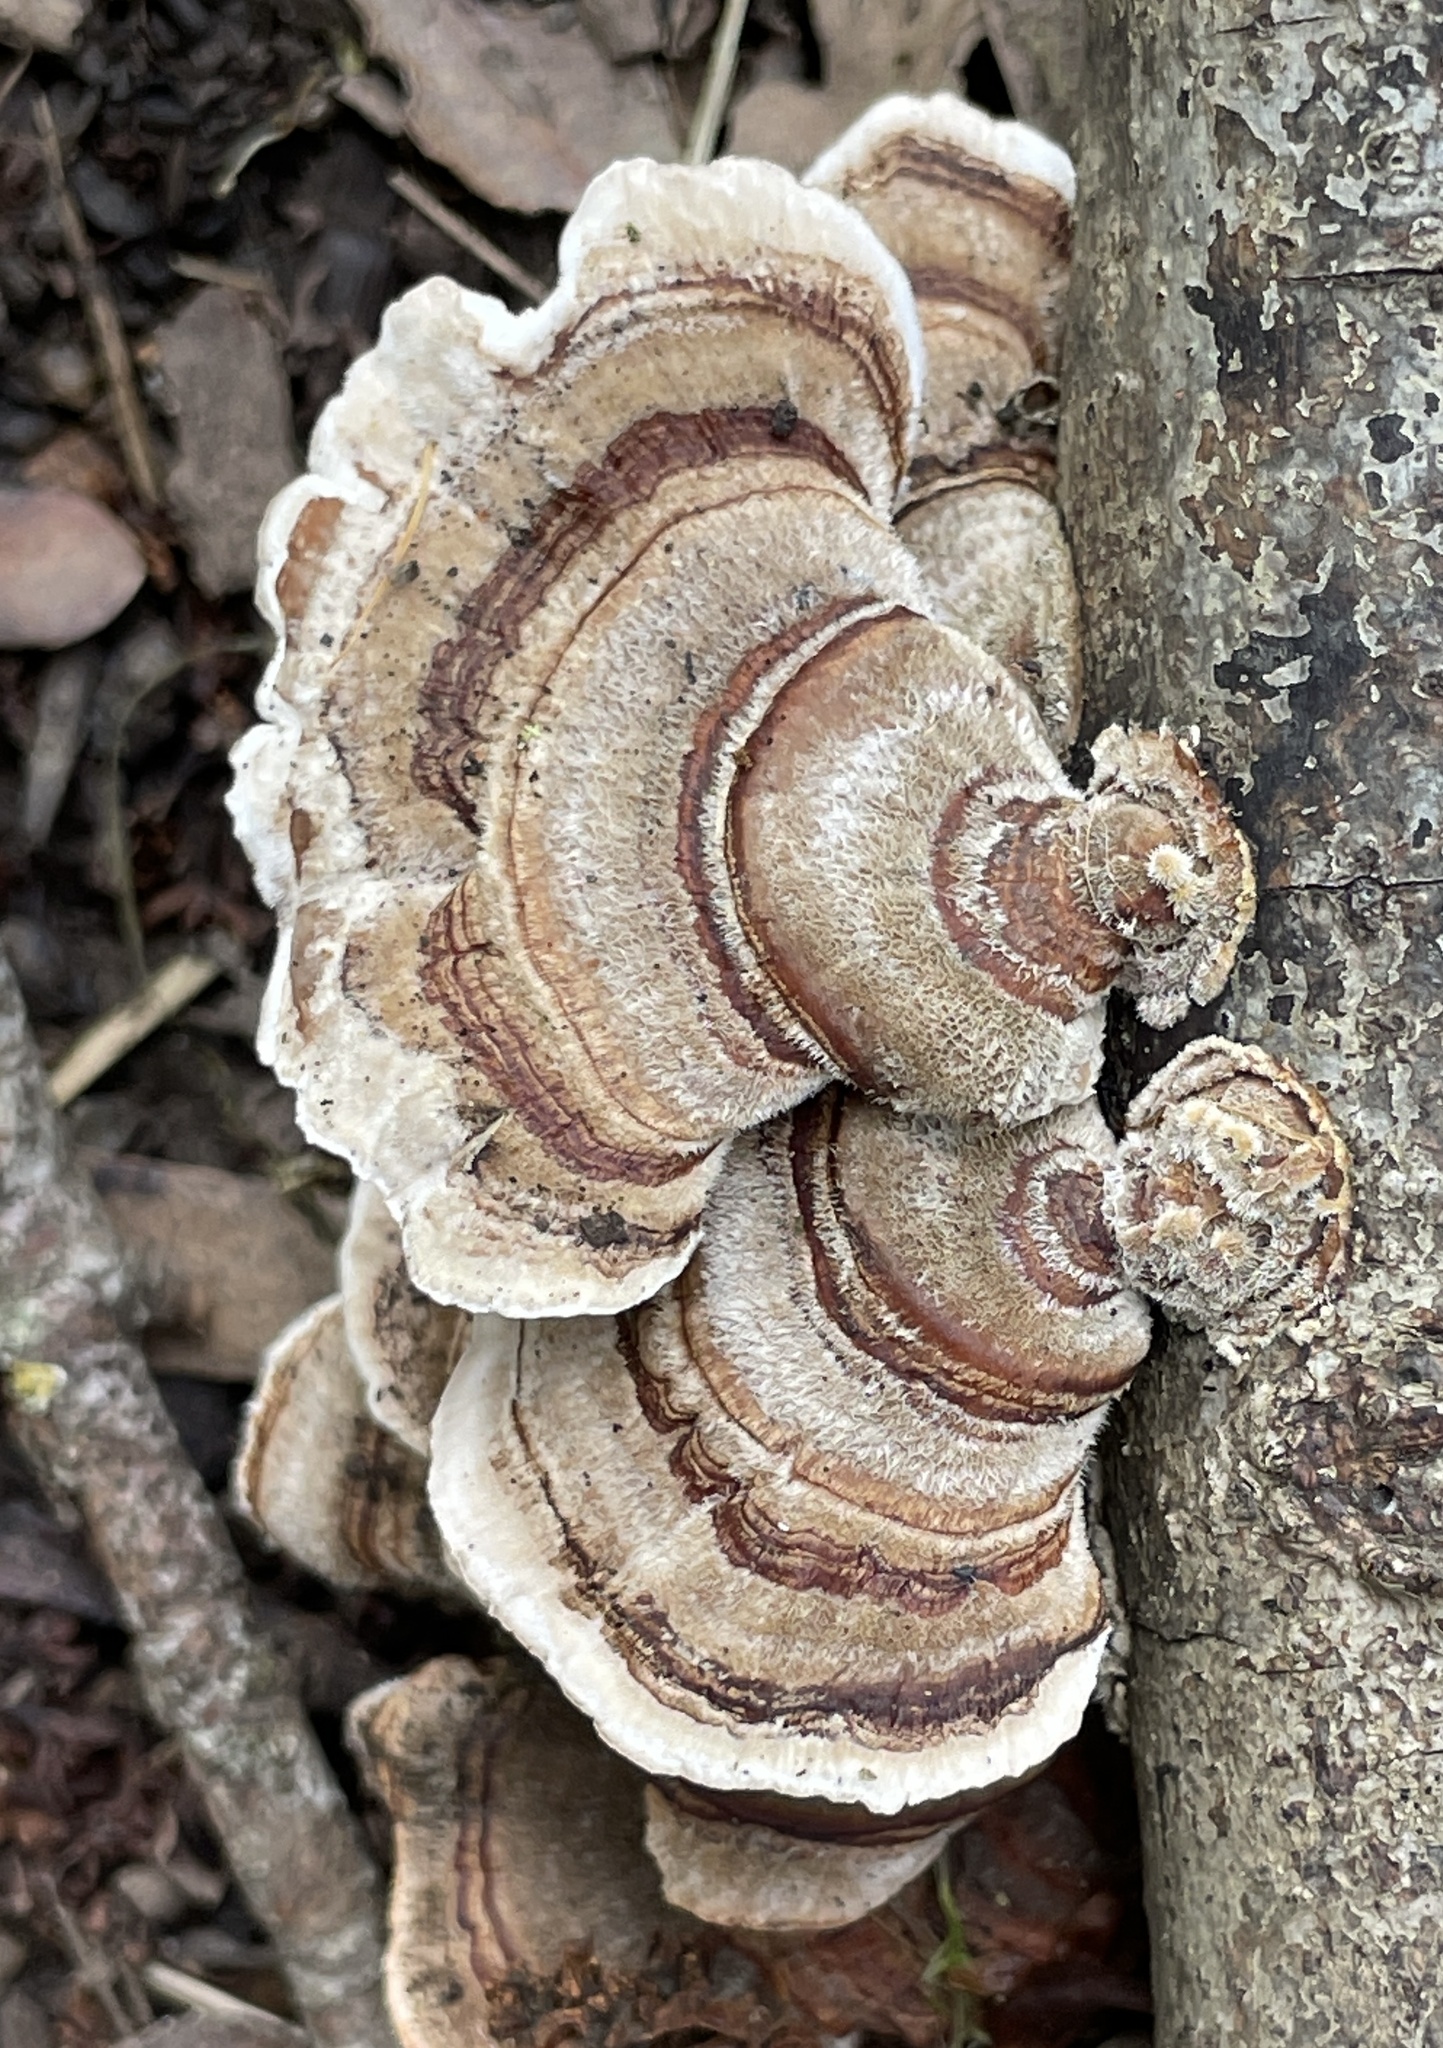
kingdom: Fungi
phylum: Basidiomycota
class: Agaricomycetes
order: Polyporales
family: Polyporaceae
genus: Trametes
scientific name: Trametes versicolor
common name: Turkeytail
